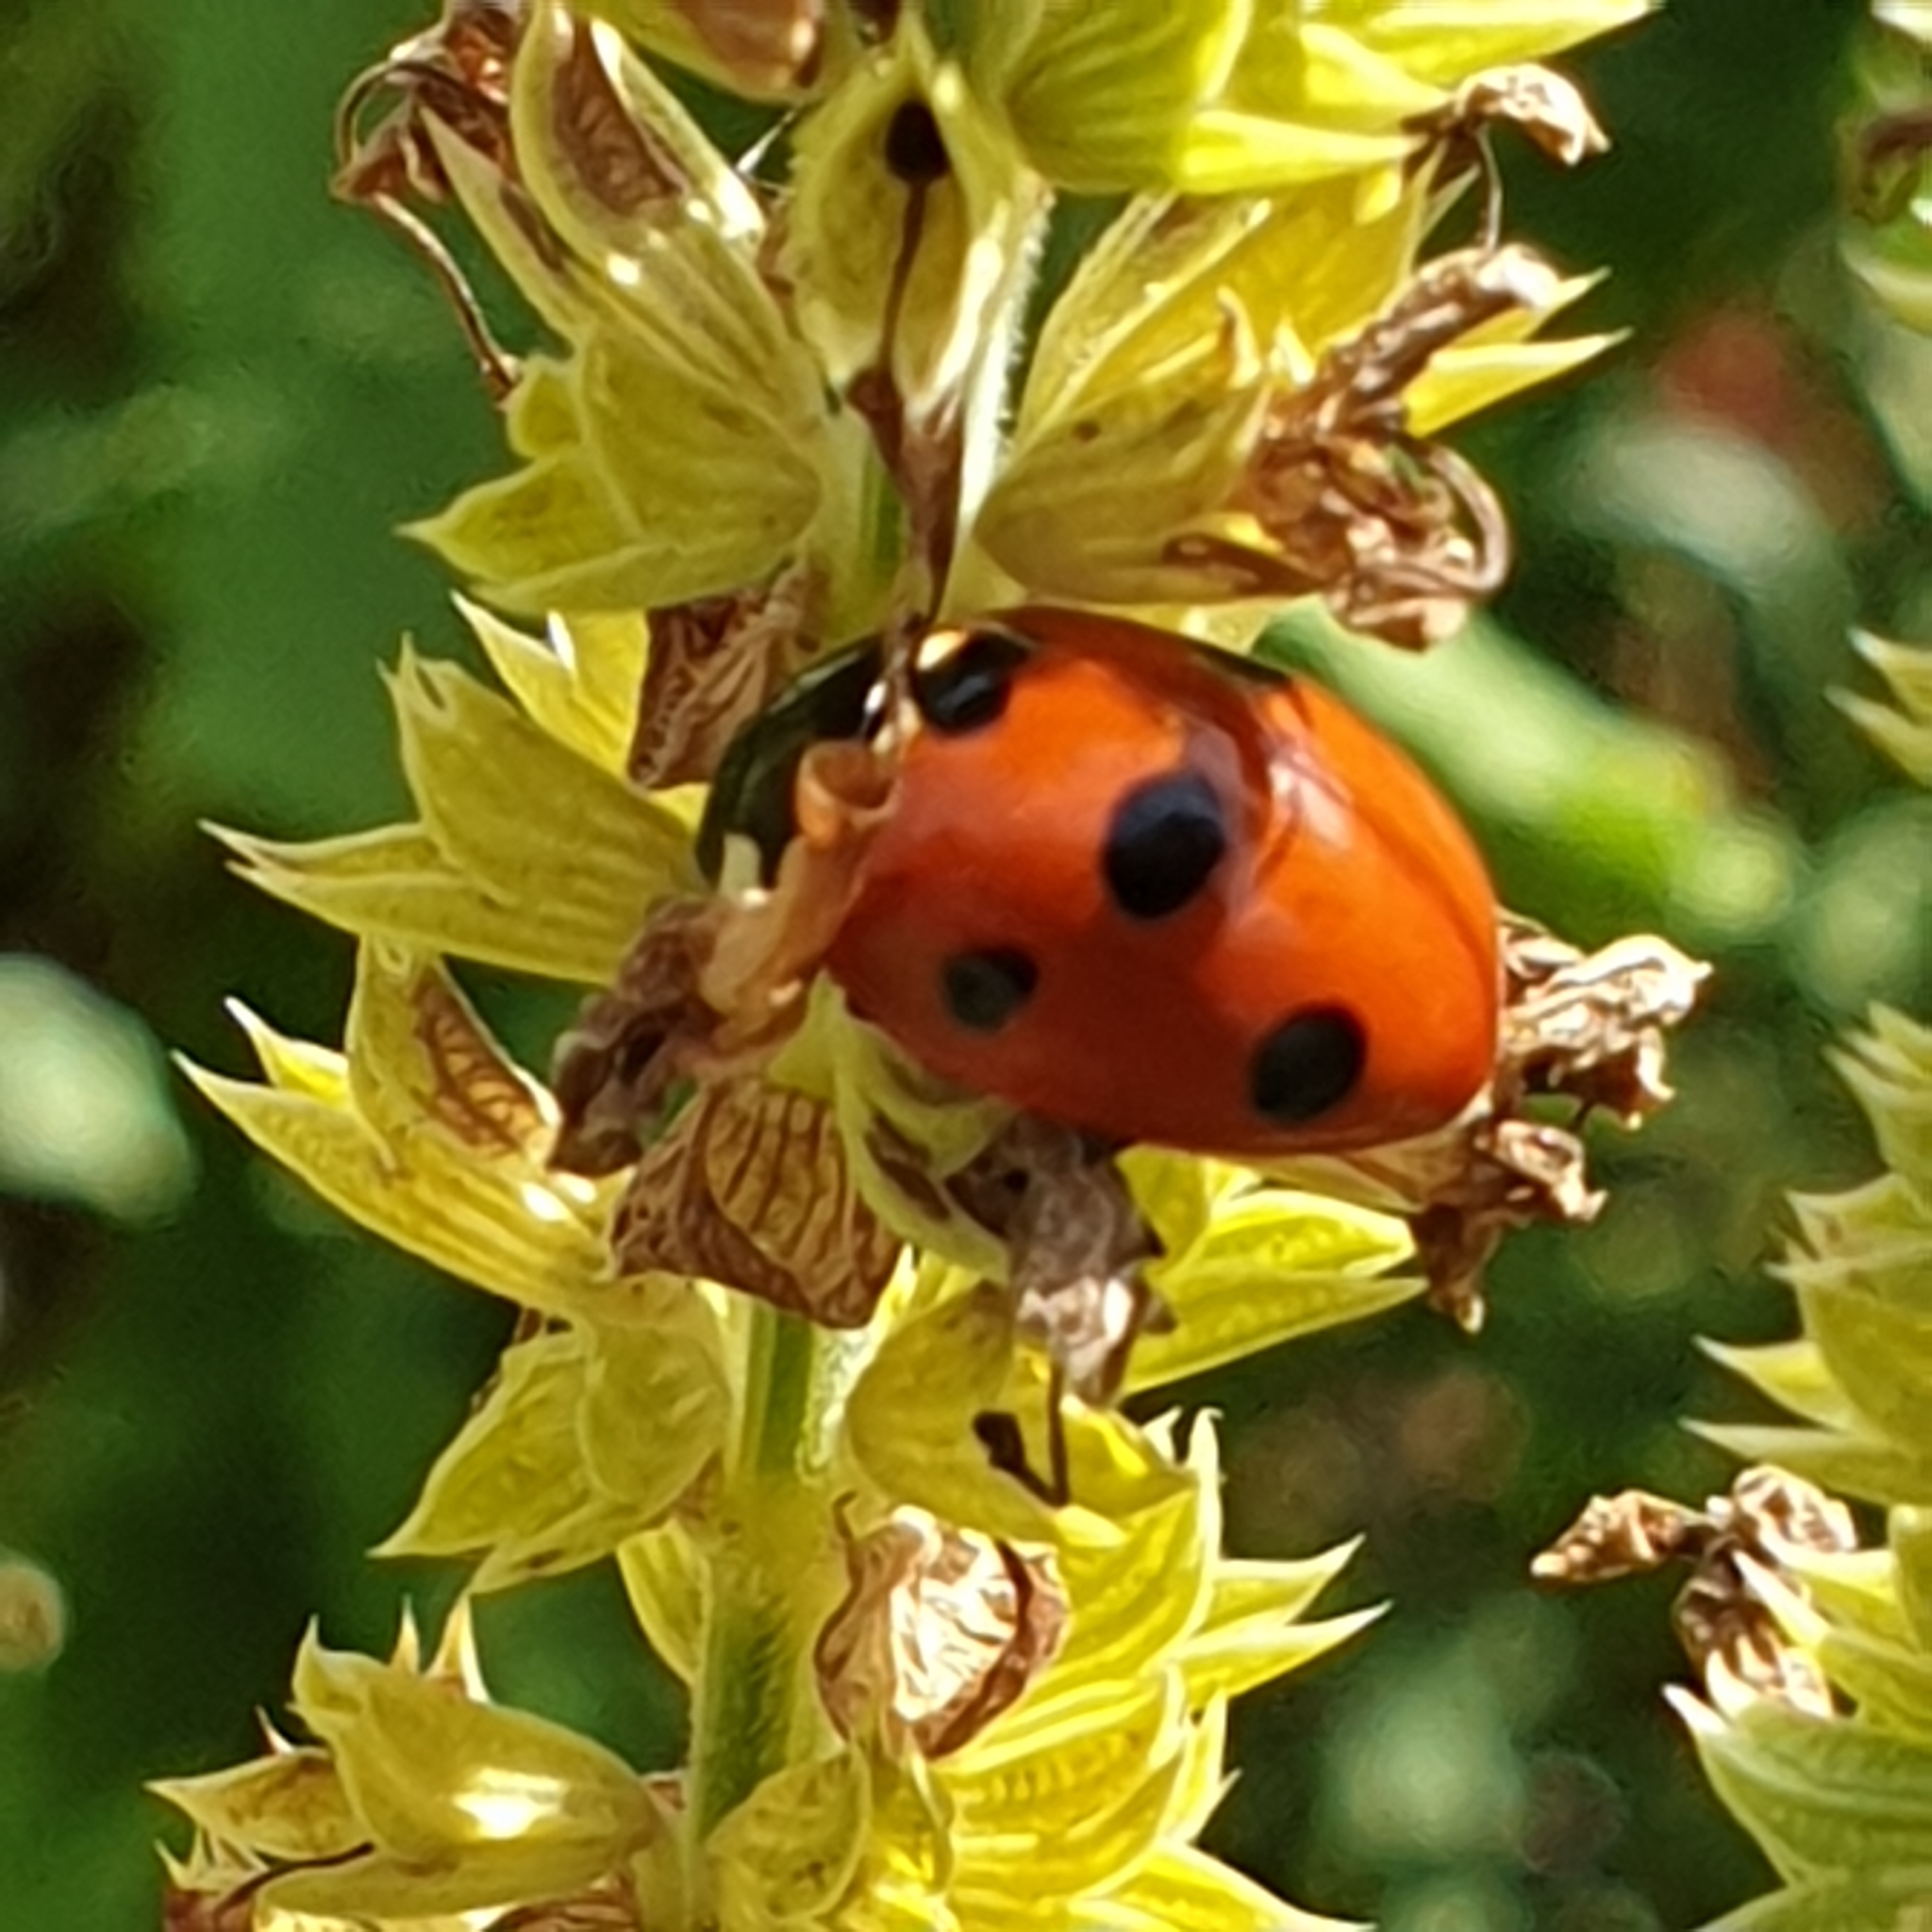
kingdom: Animalia
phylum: Arthropoda
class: Insecta
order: Coleoptera
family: Coccinellidae
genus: Coccinella
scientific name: Coccinella septempunctata
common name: Sevenspotted lady beetle
